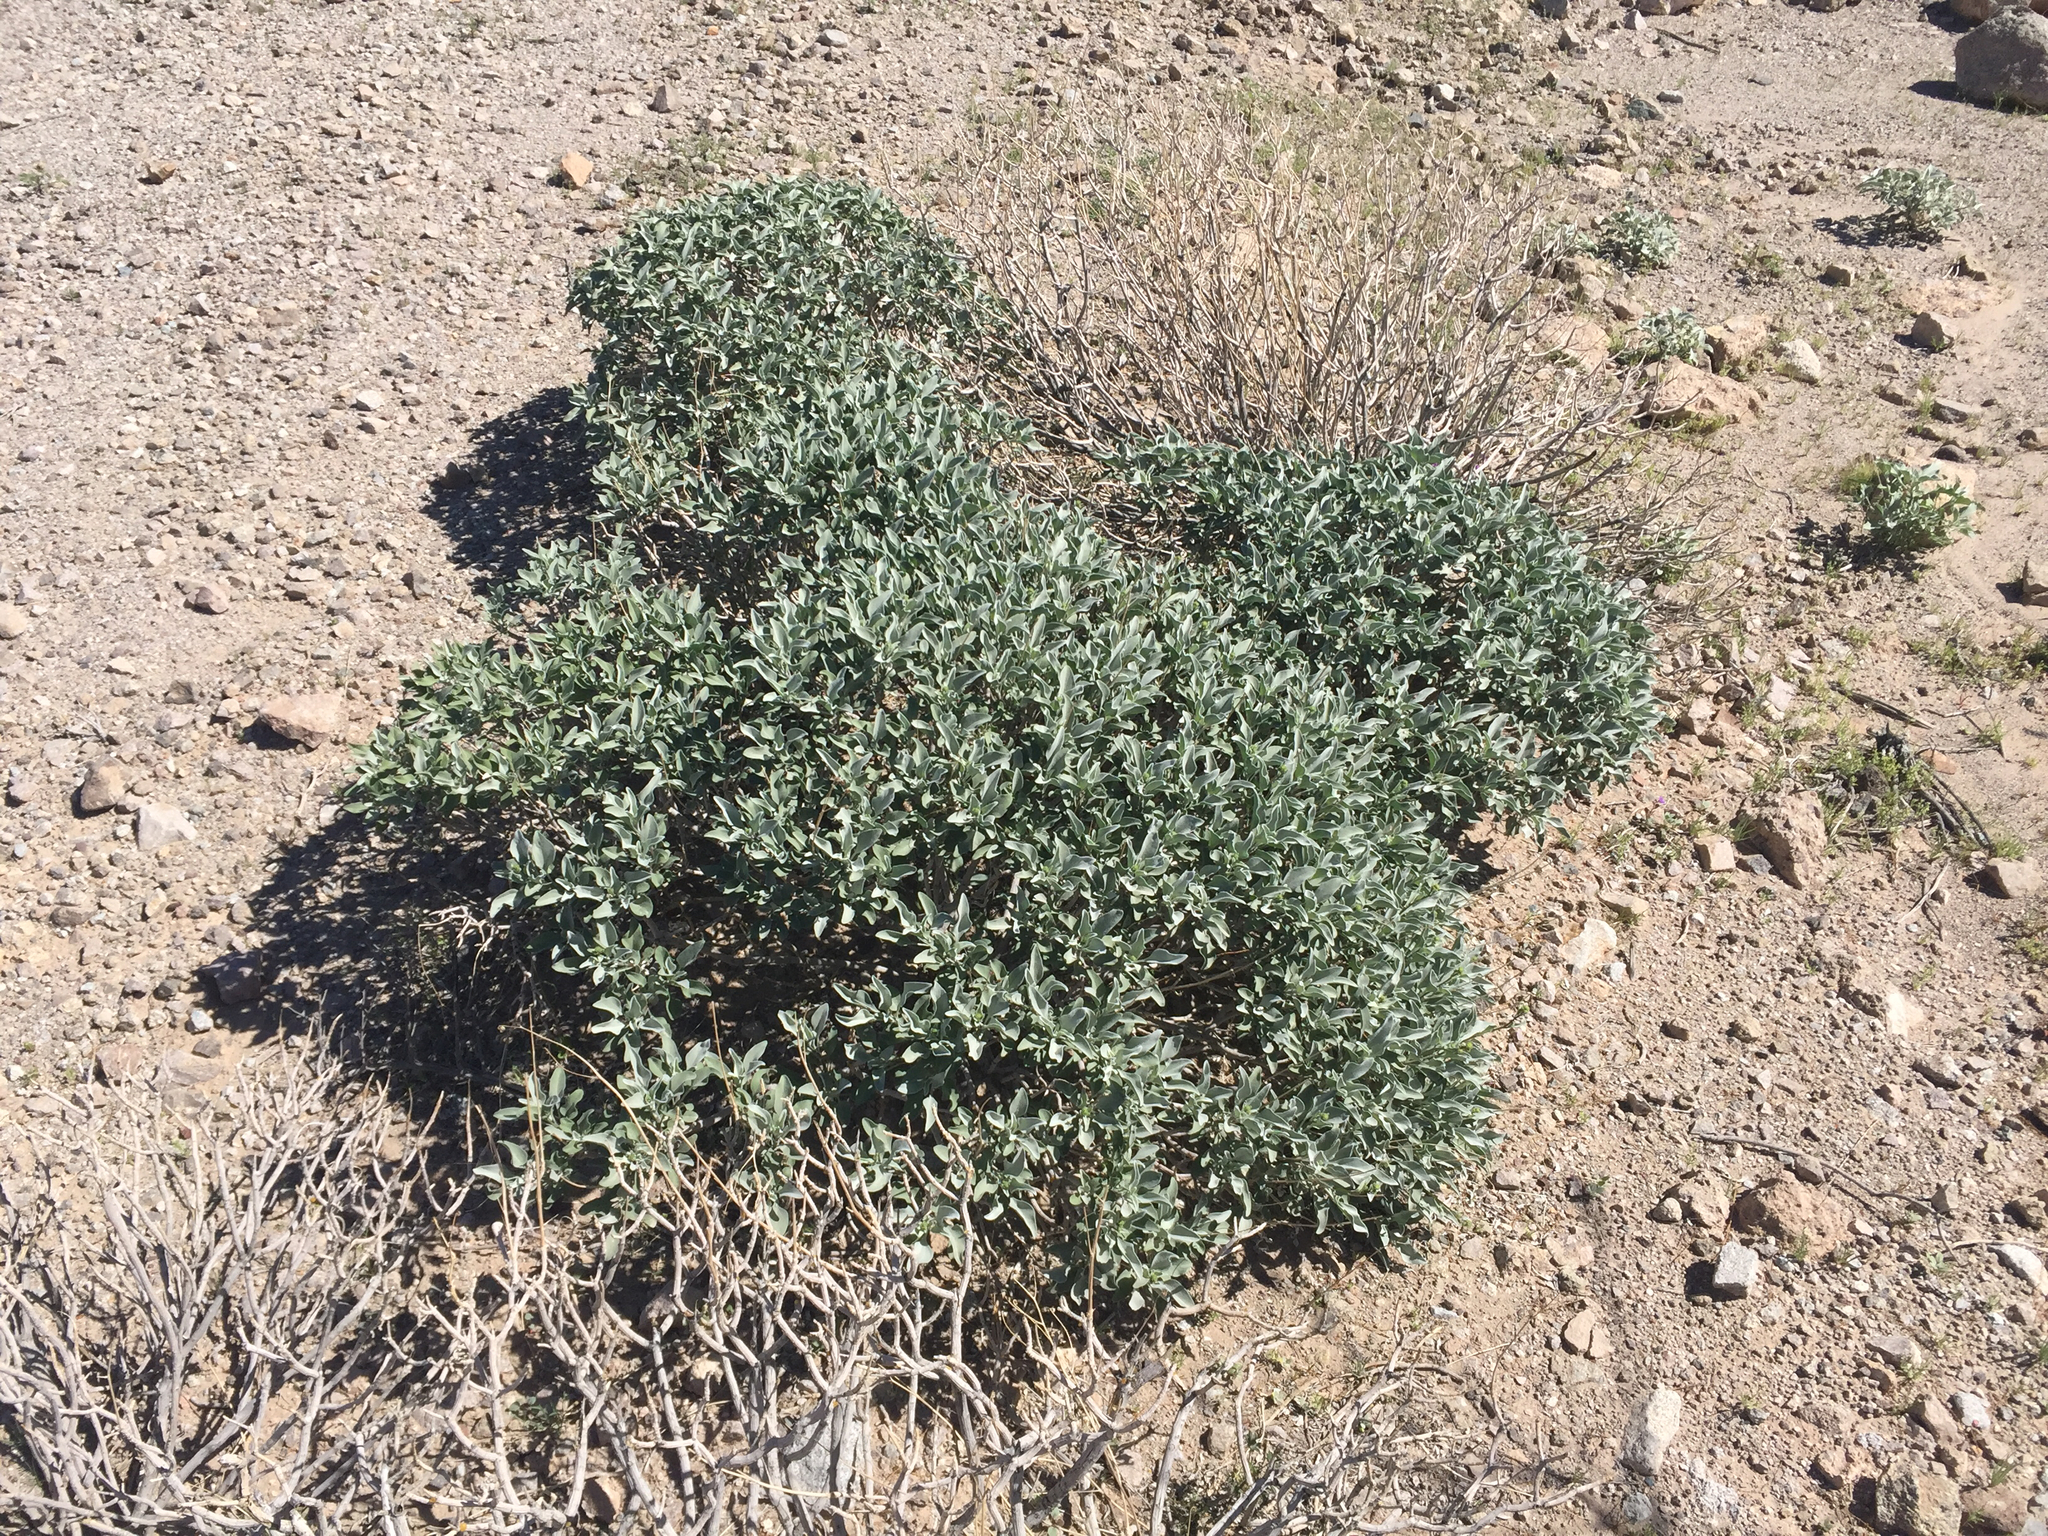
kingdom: Plantae
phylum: Tracheophyta
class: Magnoliopsida
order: Asterales
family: Asteraceae
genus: Encelia
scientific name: Encelia farinosa
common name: Brittlebush
